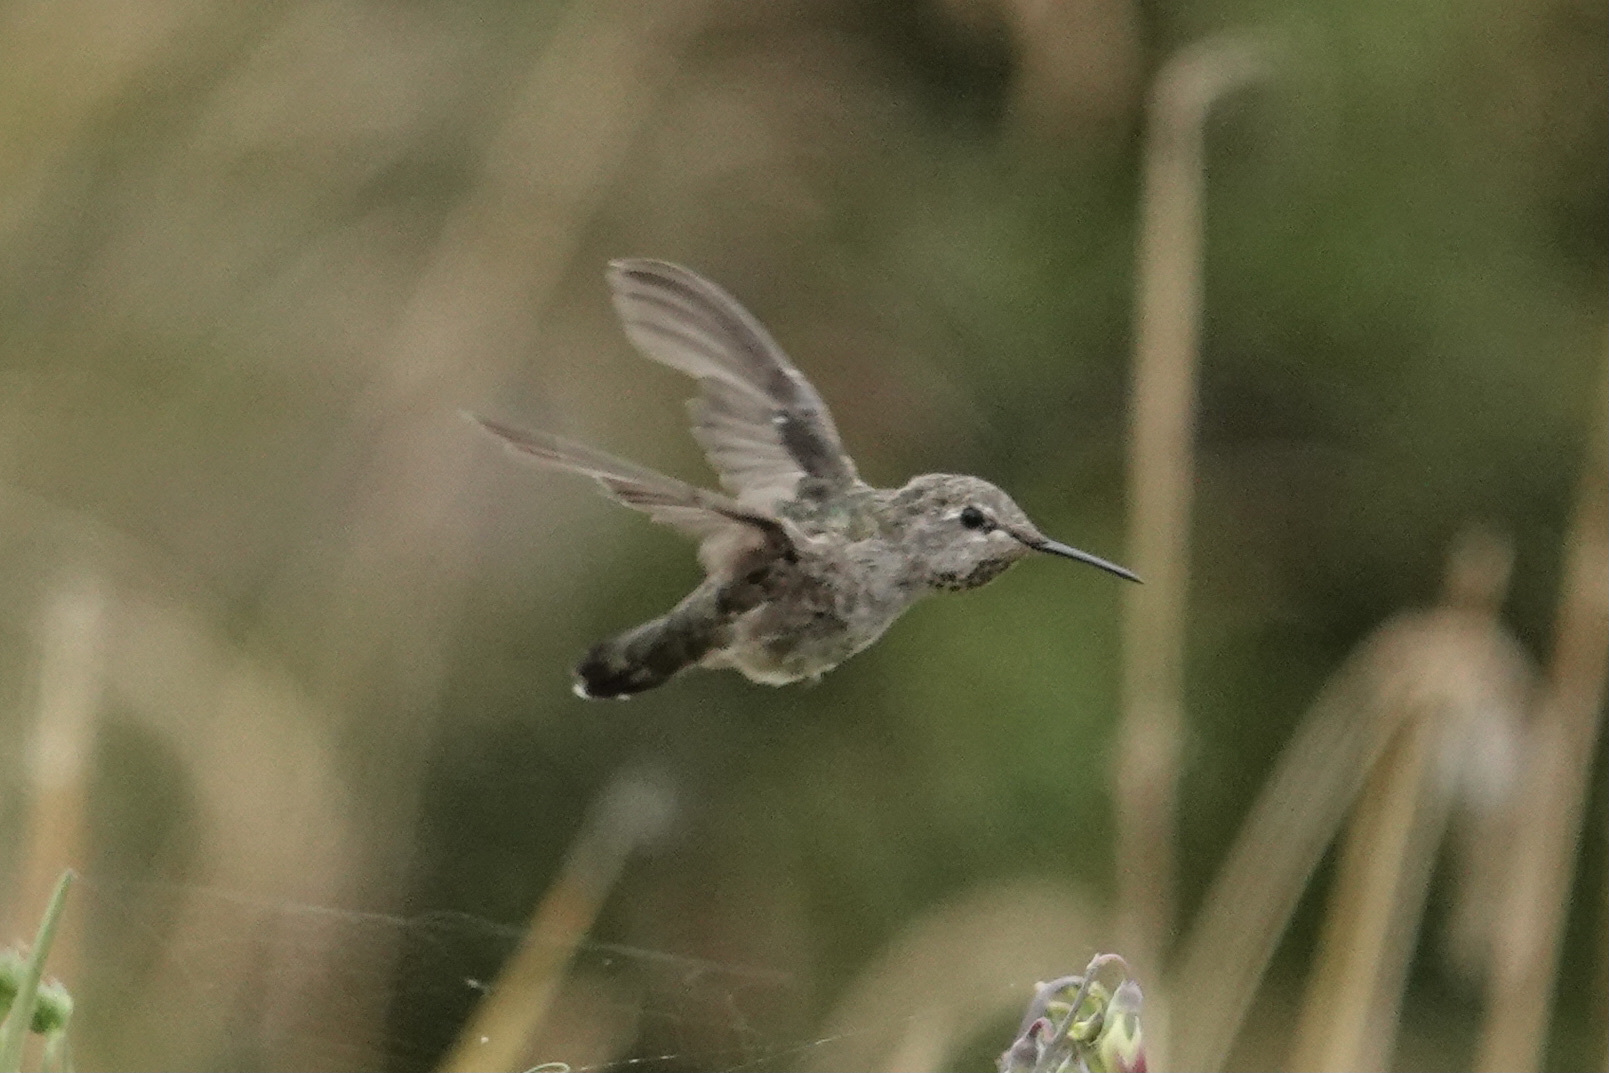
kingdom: Animalia
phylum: Chordata
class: Aves
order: Apodiformes
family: Trochilidae
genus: Calypte
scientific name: Calypte anna
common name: Anna's hummingbird
